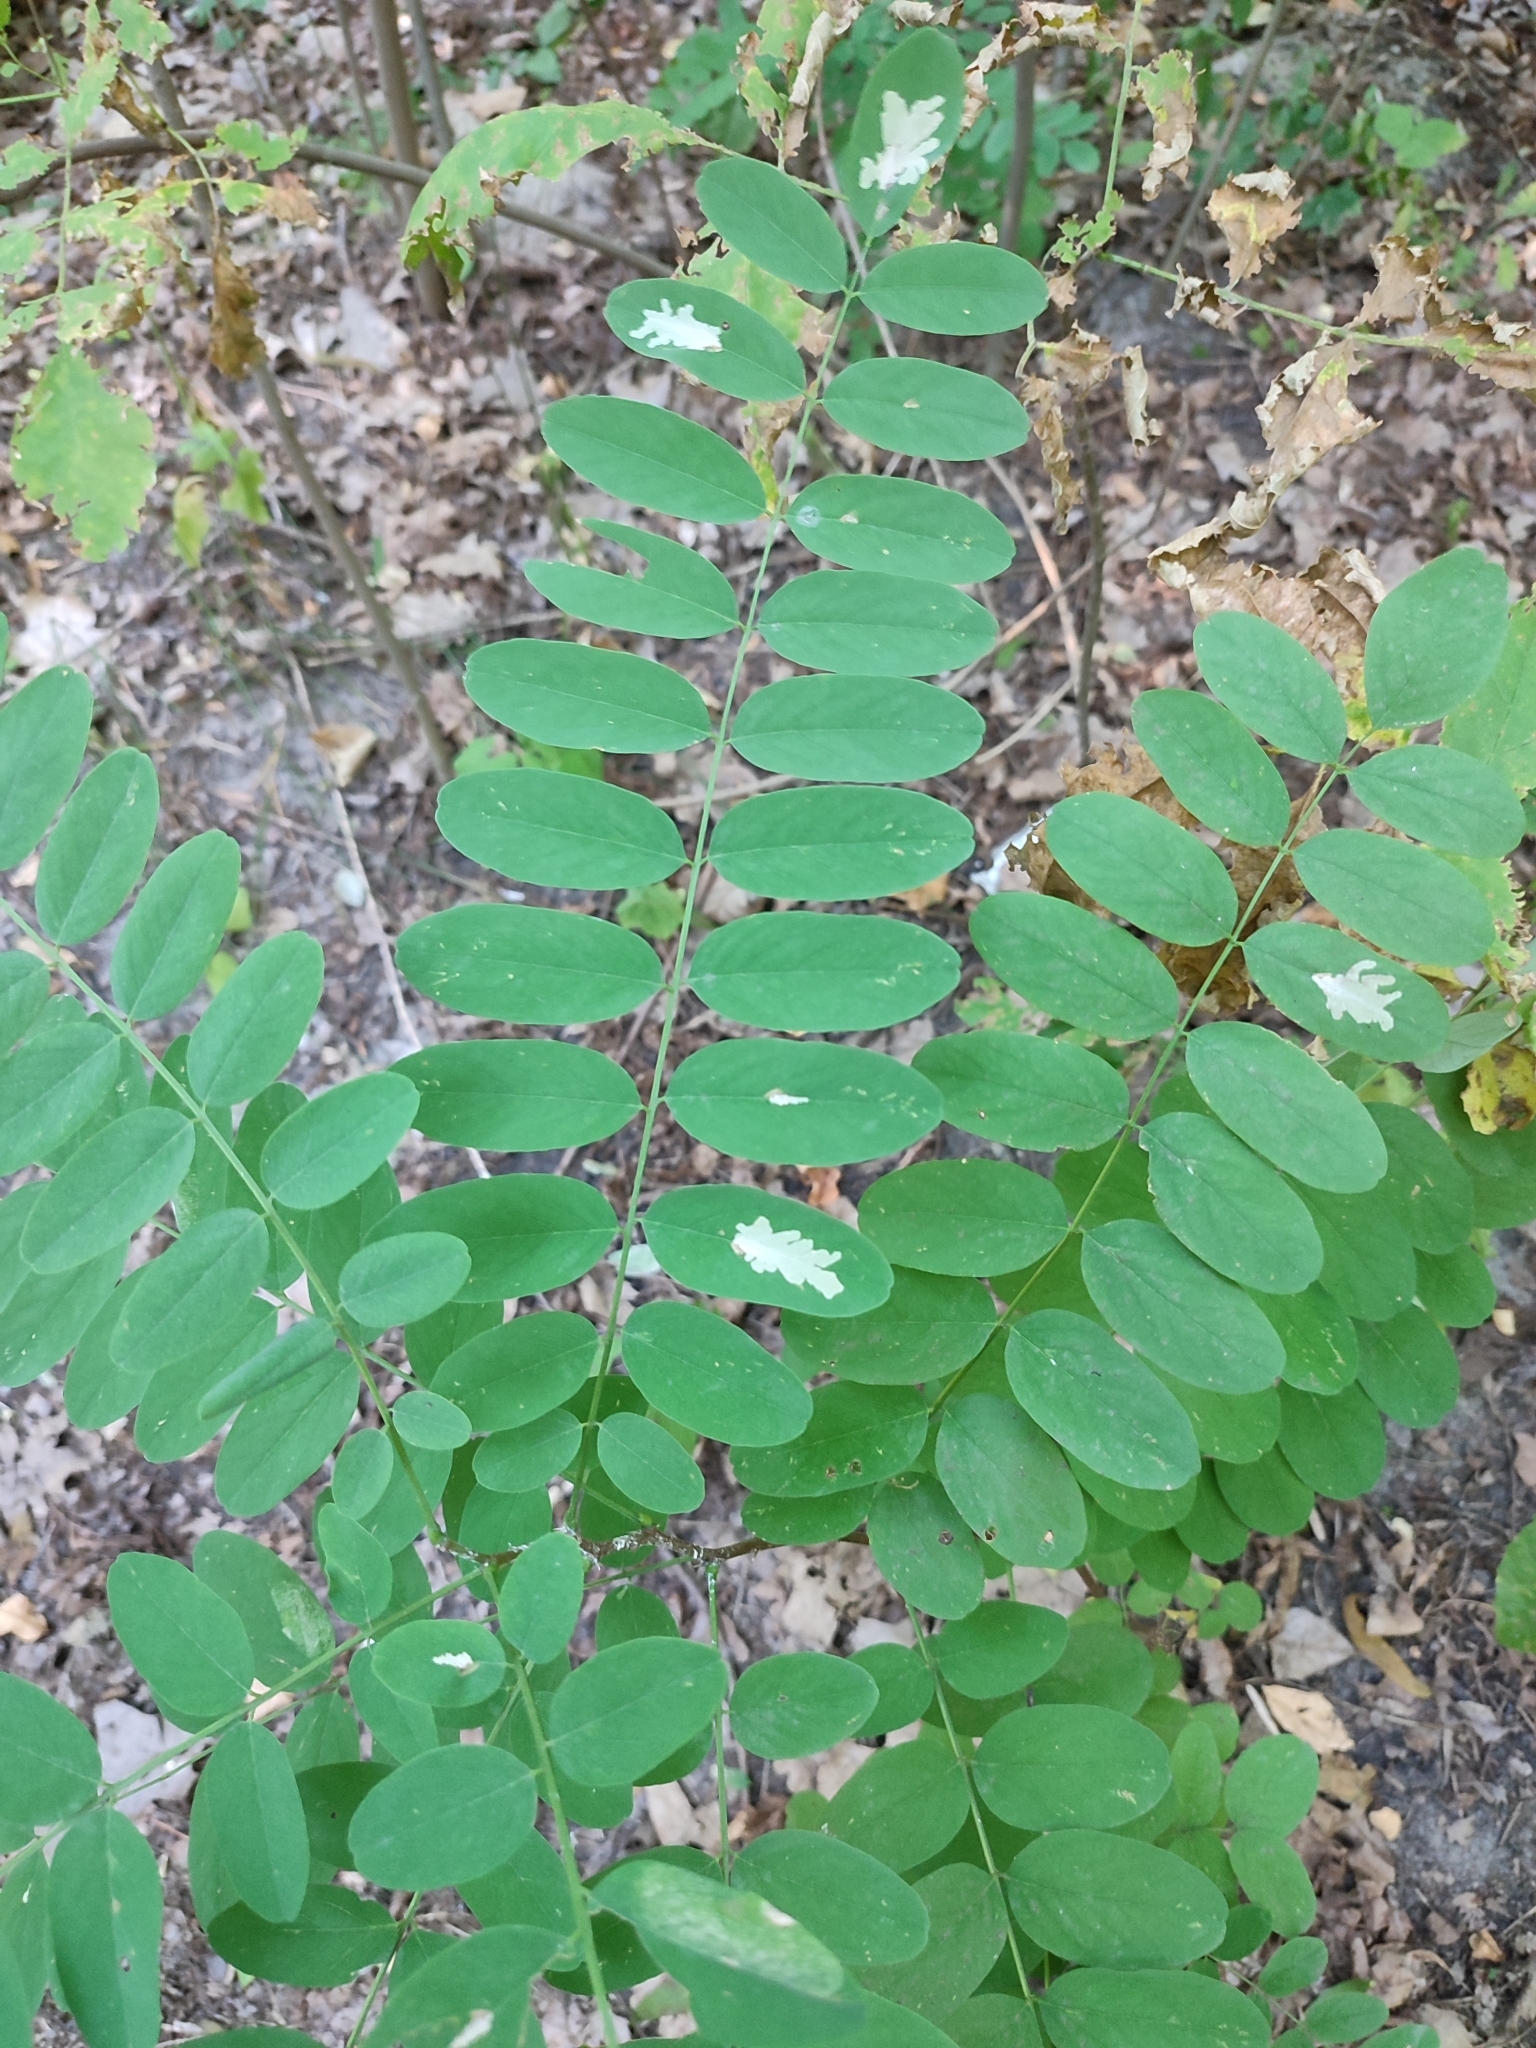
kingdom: Animalia
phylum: Arthropoda
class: Insecta
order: Lepidoptera
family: Gracillariidae
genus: Parectopa
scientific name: Parectopa robiniella
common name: Locust digitate leafminer
